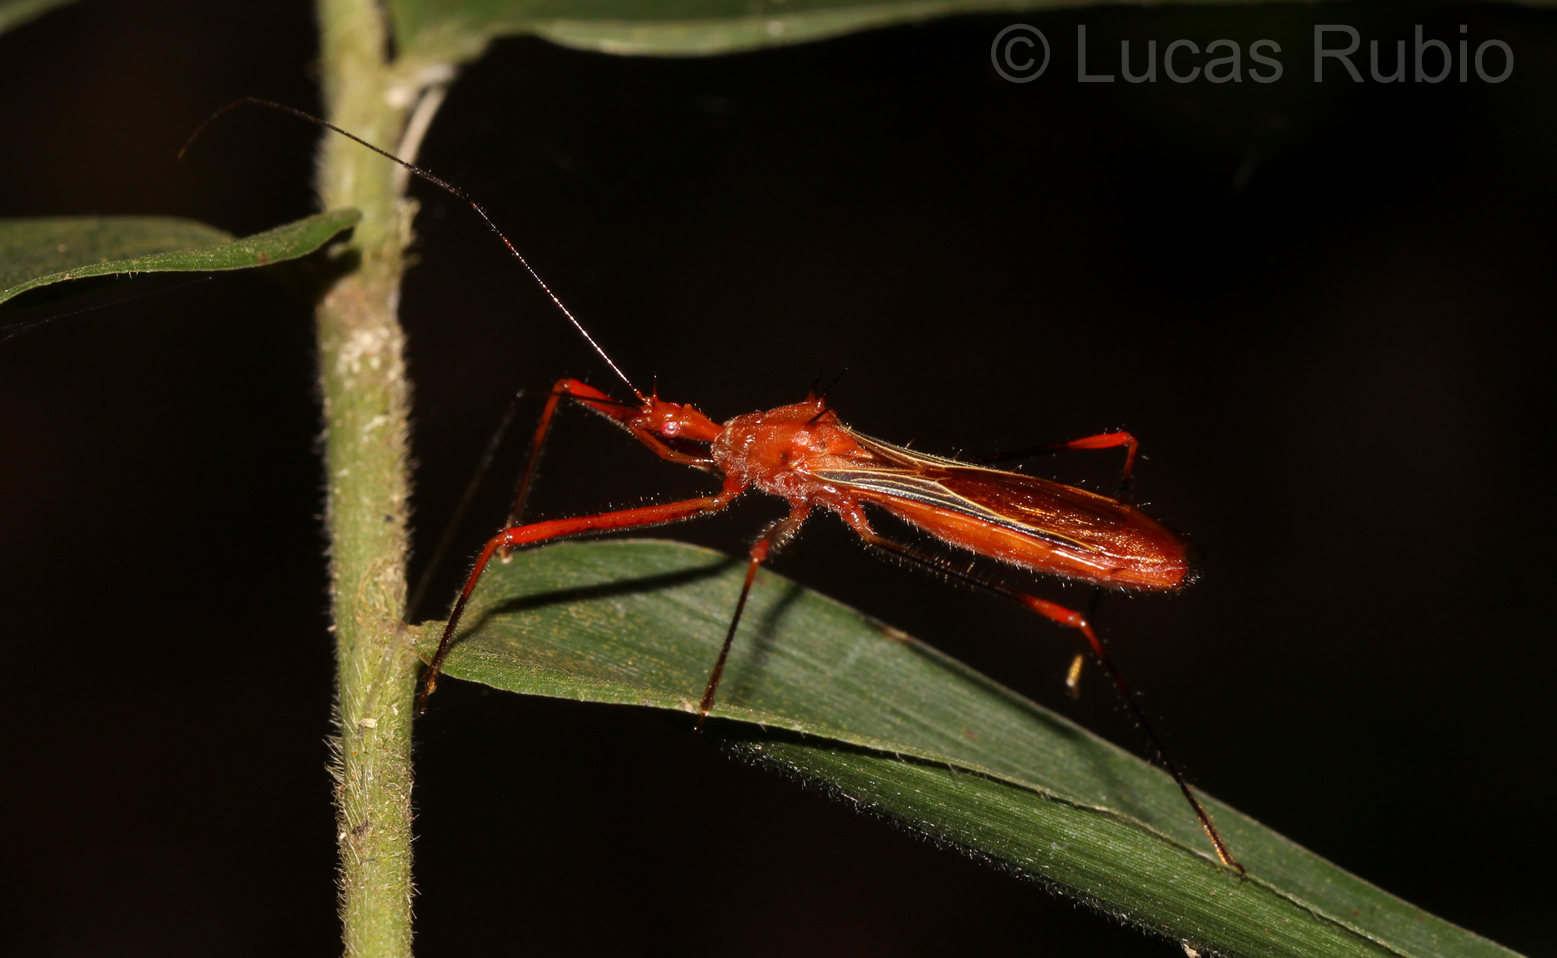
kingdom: Animalia
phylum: Arthropoda
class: Insecta
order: Hemiptera
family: Reduviidae
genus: Ricolla
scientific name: Ricolla quadrispinosa
